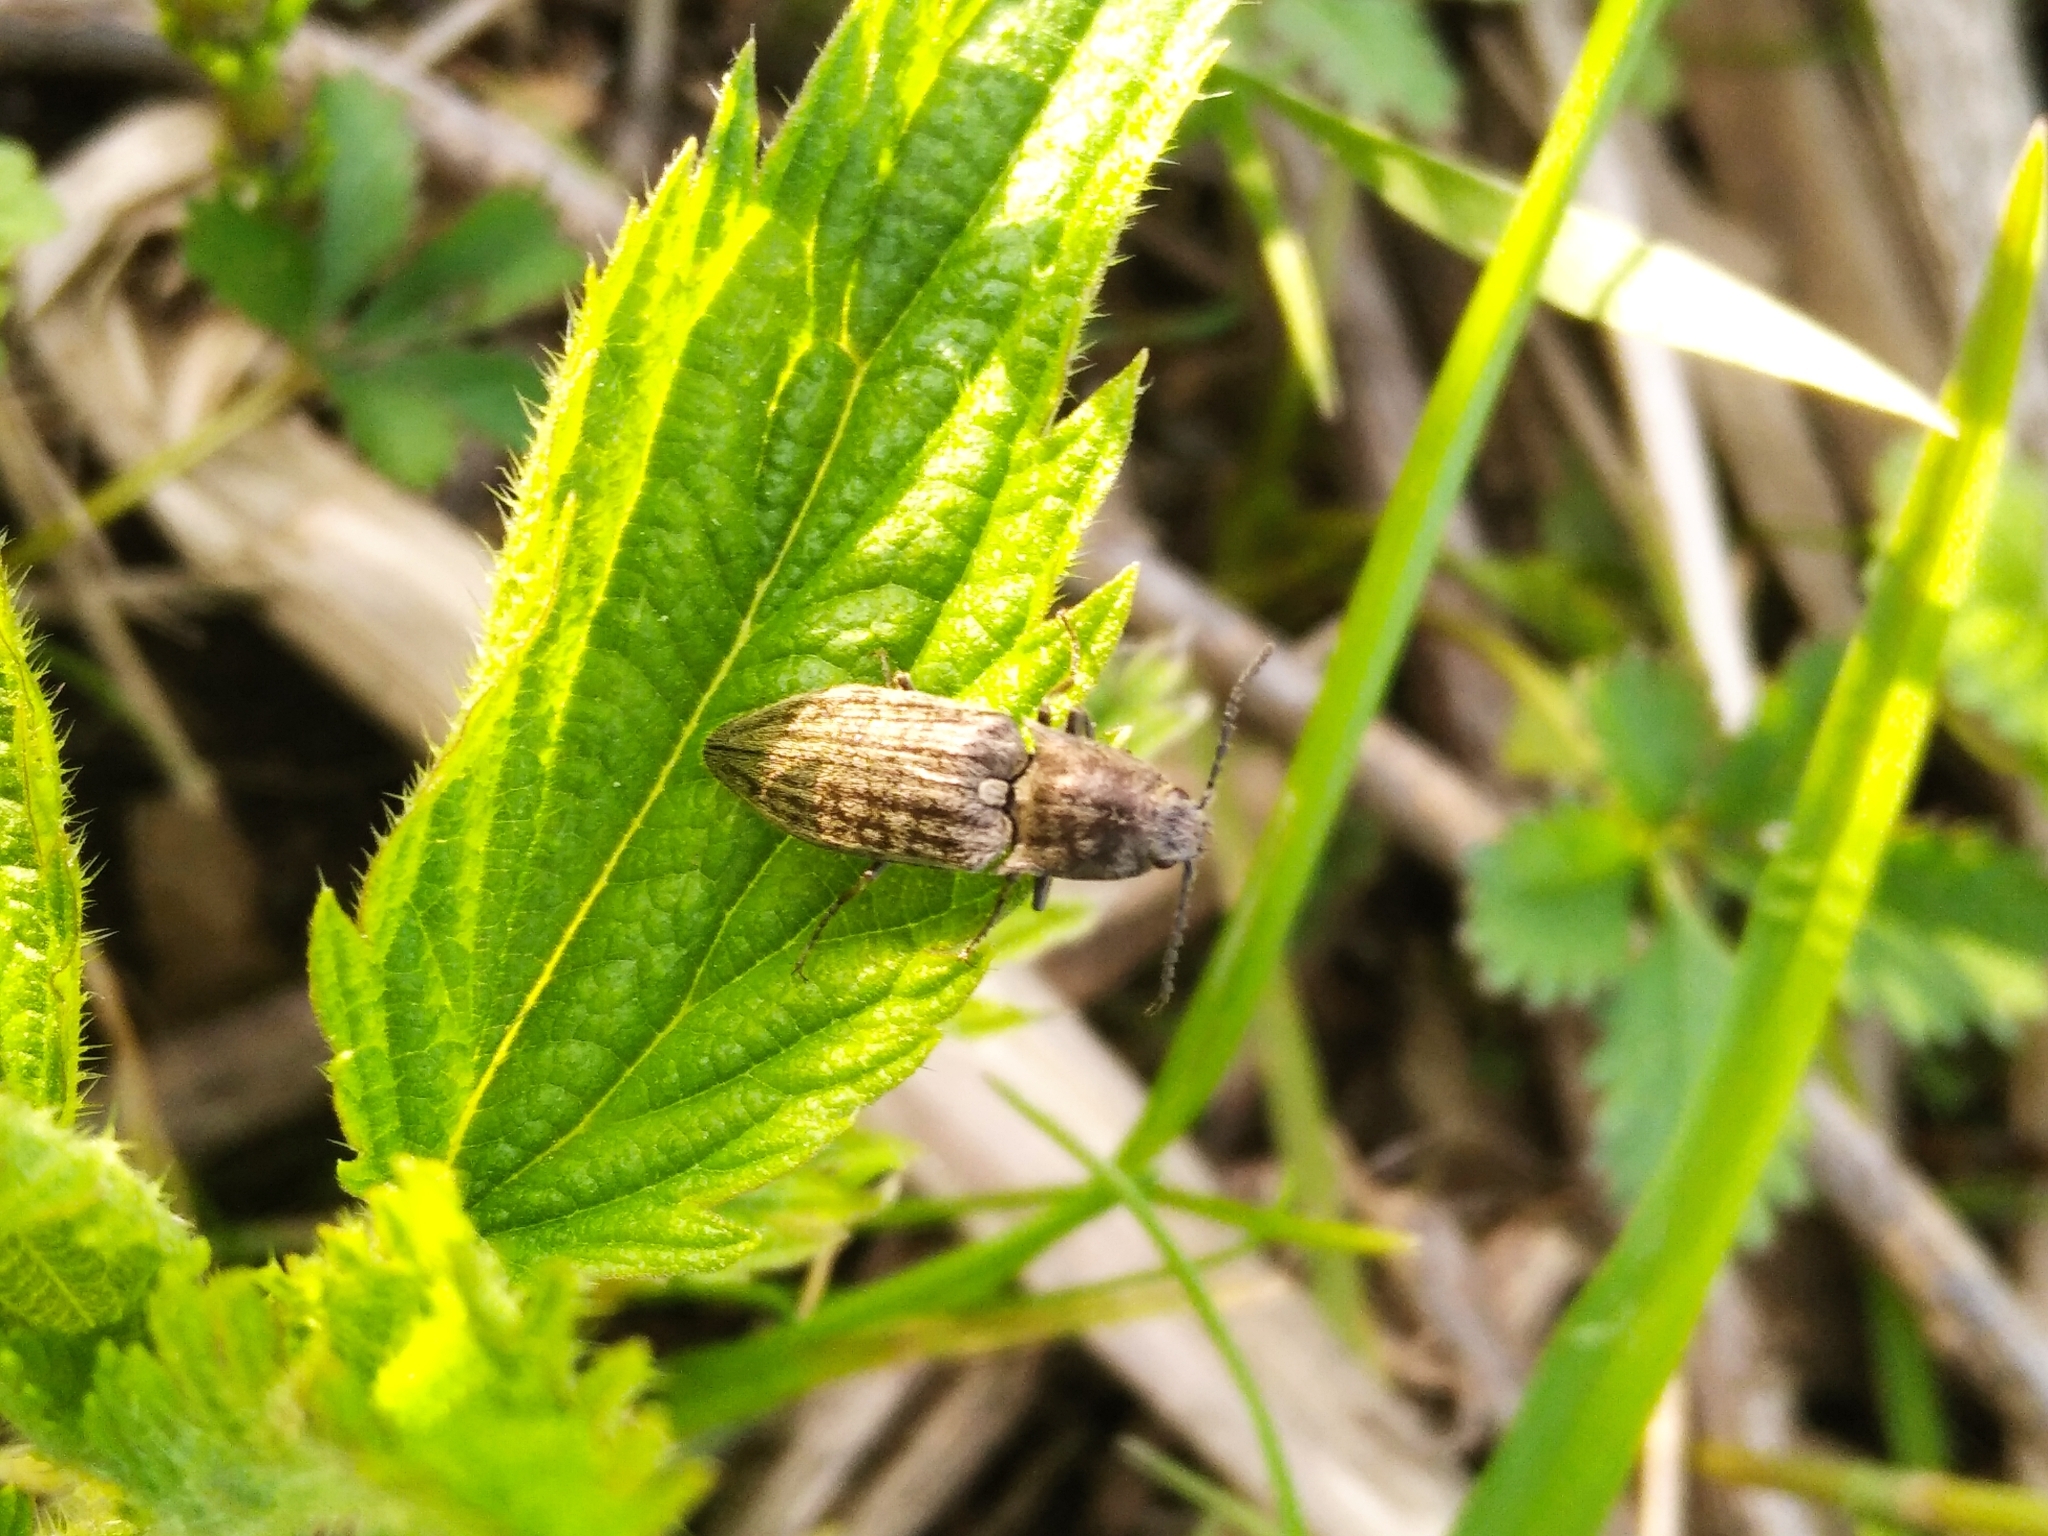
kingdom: Animalia
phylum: Arthropoda
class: Insecta
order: Coleoptera
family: Elateridae
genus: Actenicerus
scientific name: Actenicerus sjaelandicus
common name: Marsh click beetle
